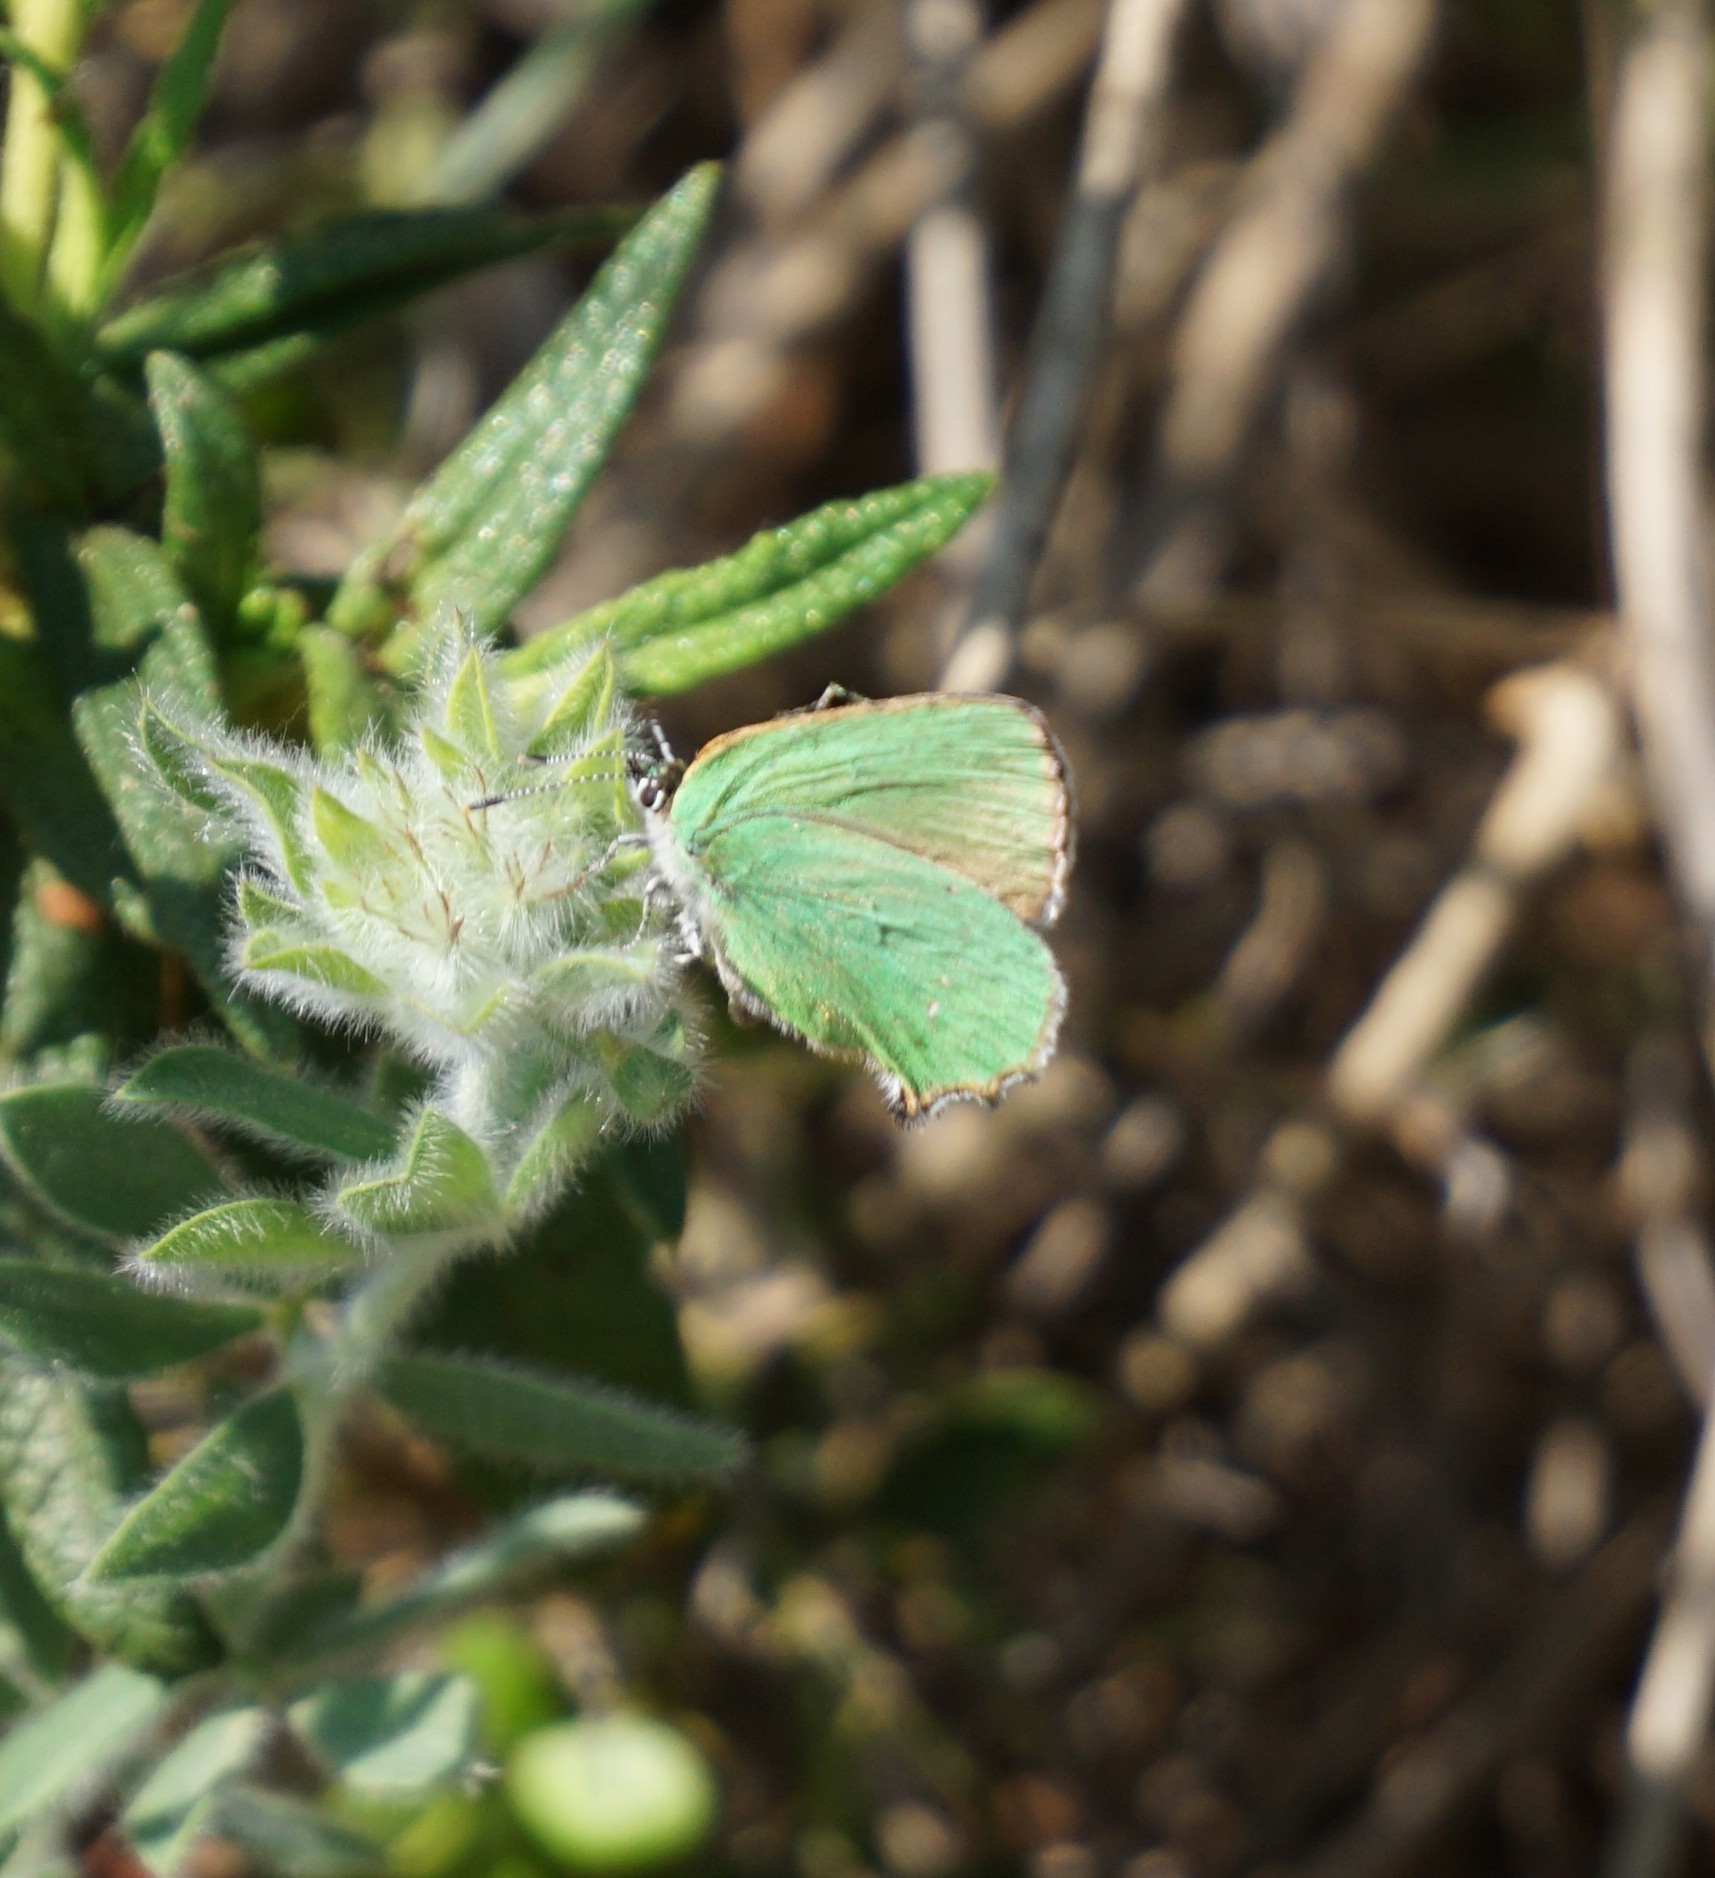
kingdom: Animalia
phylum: Arthropoda
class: Insecta
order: Lepidoptera
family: Lycaenidae
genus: Callophrys
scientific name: Callophrys rubi
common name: Green hairstreak
